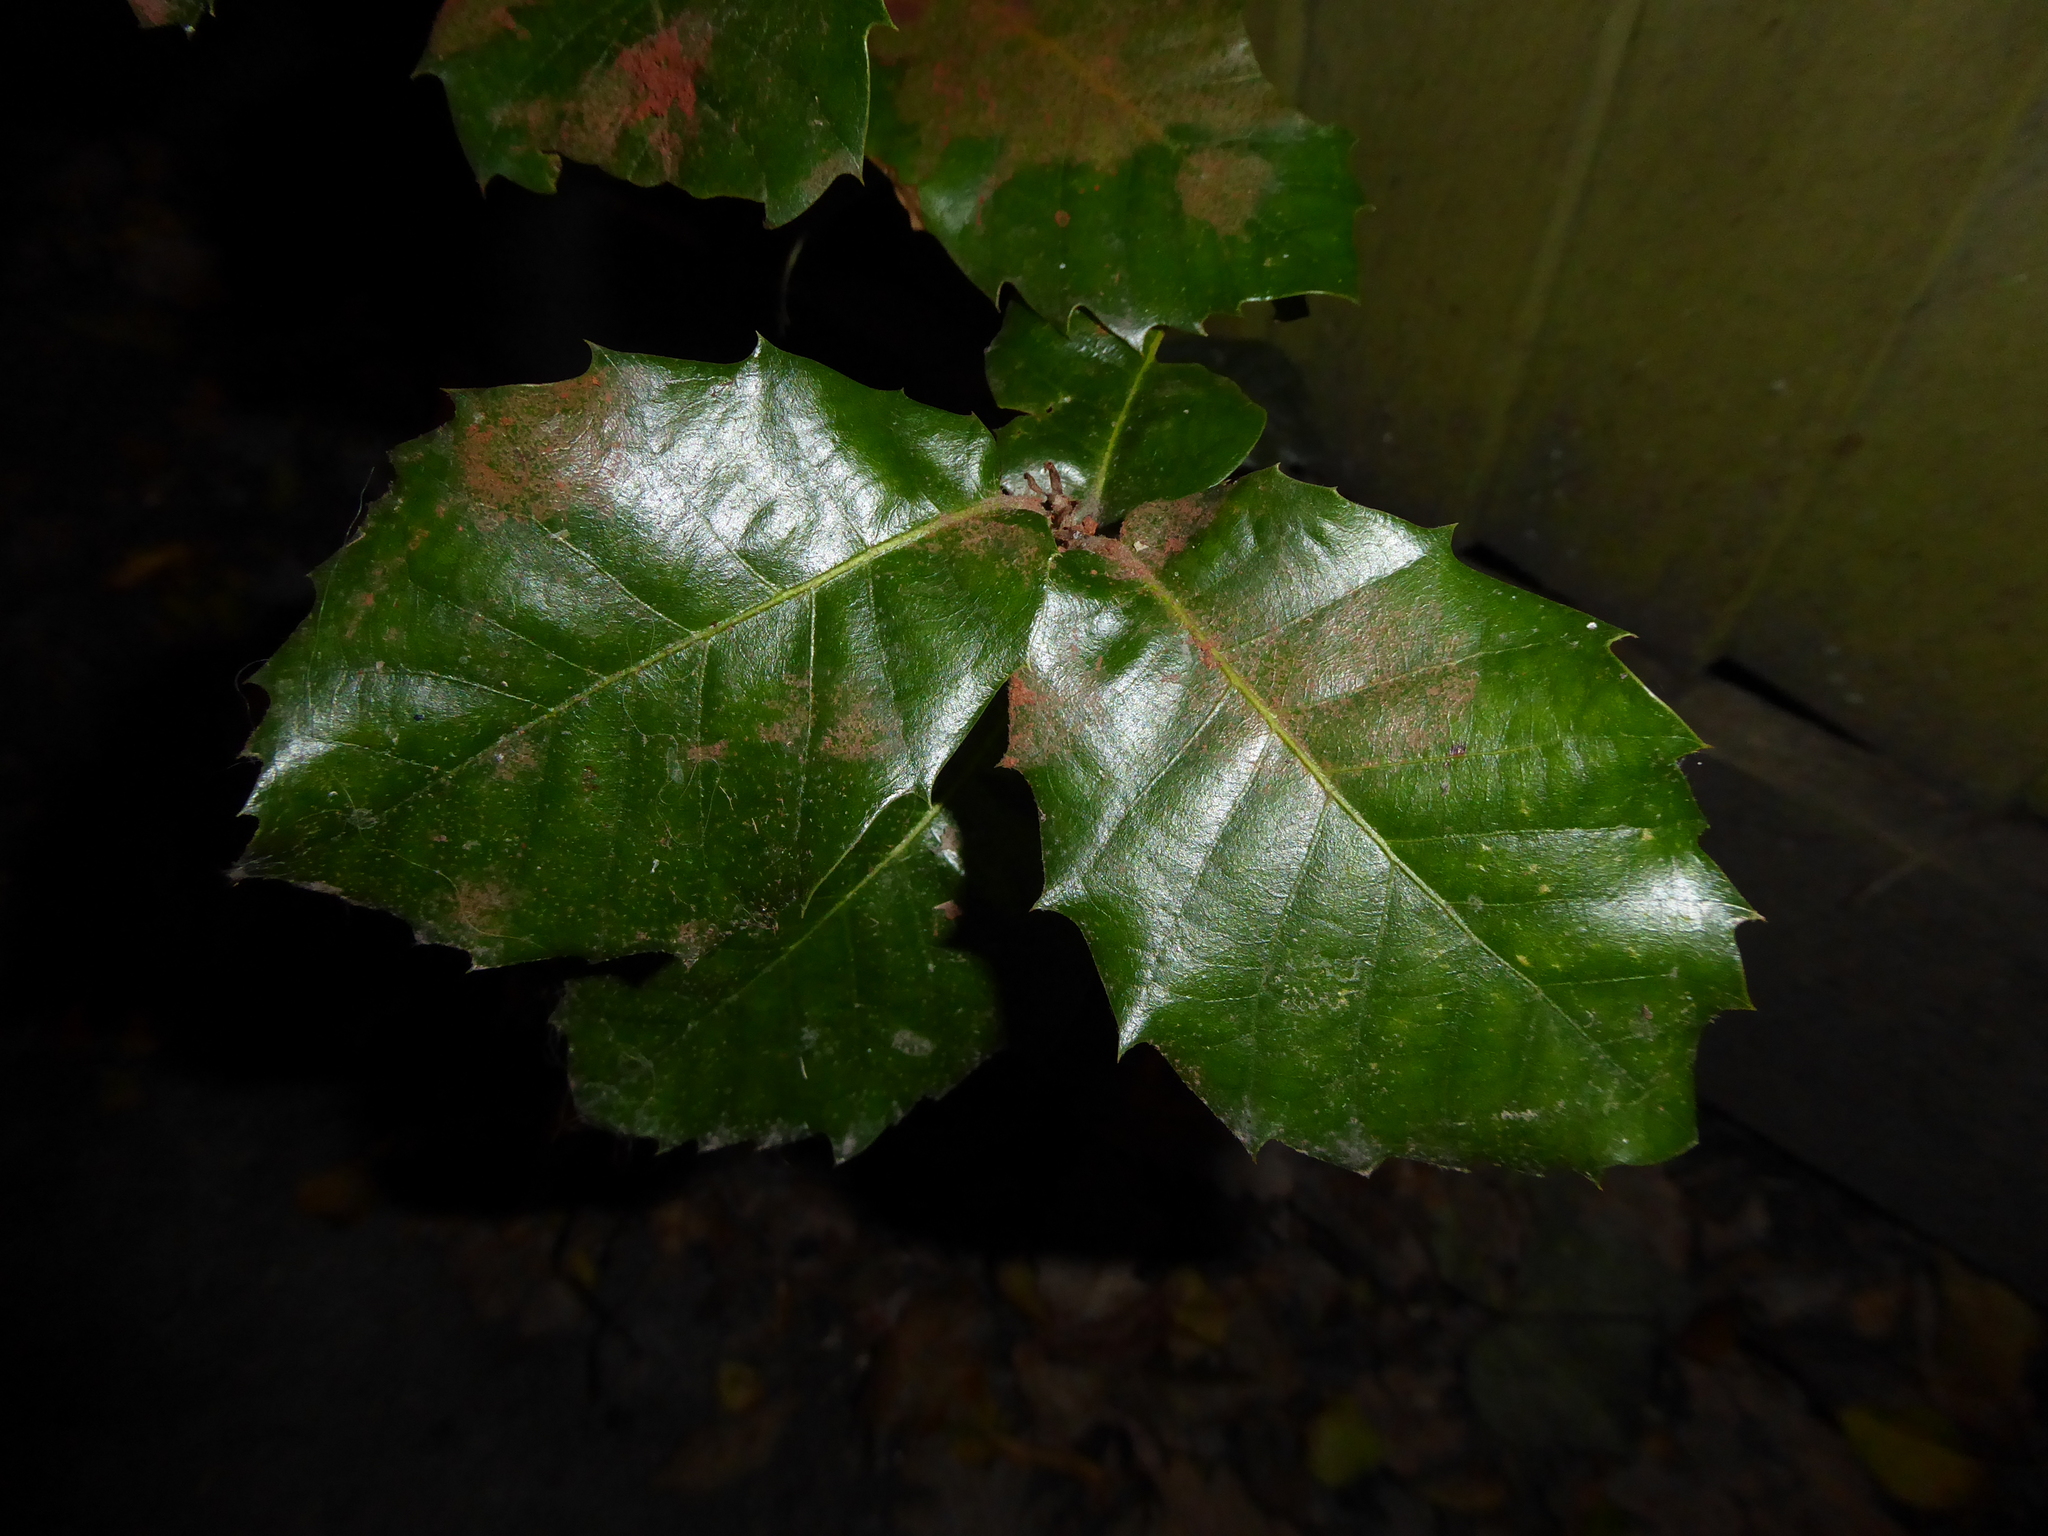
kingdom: Plantae
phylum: Tracheophyta
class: Magnoliopsida
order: Fagales
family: Fagaceae
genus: Quercus
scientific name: Quercus ilex
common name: Evergreen oak
